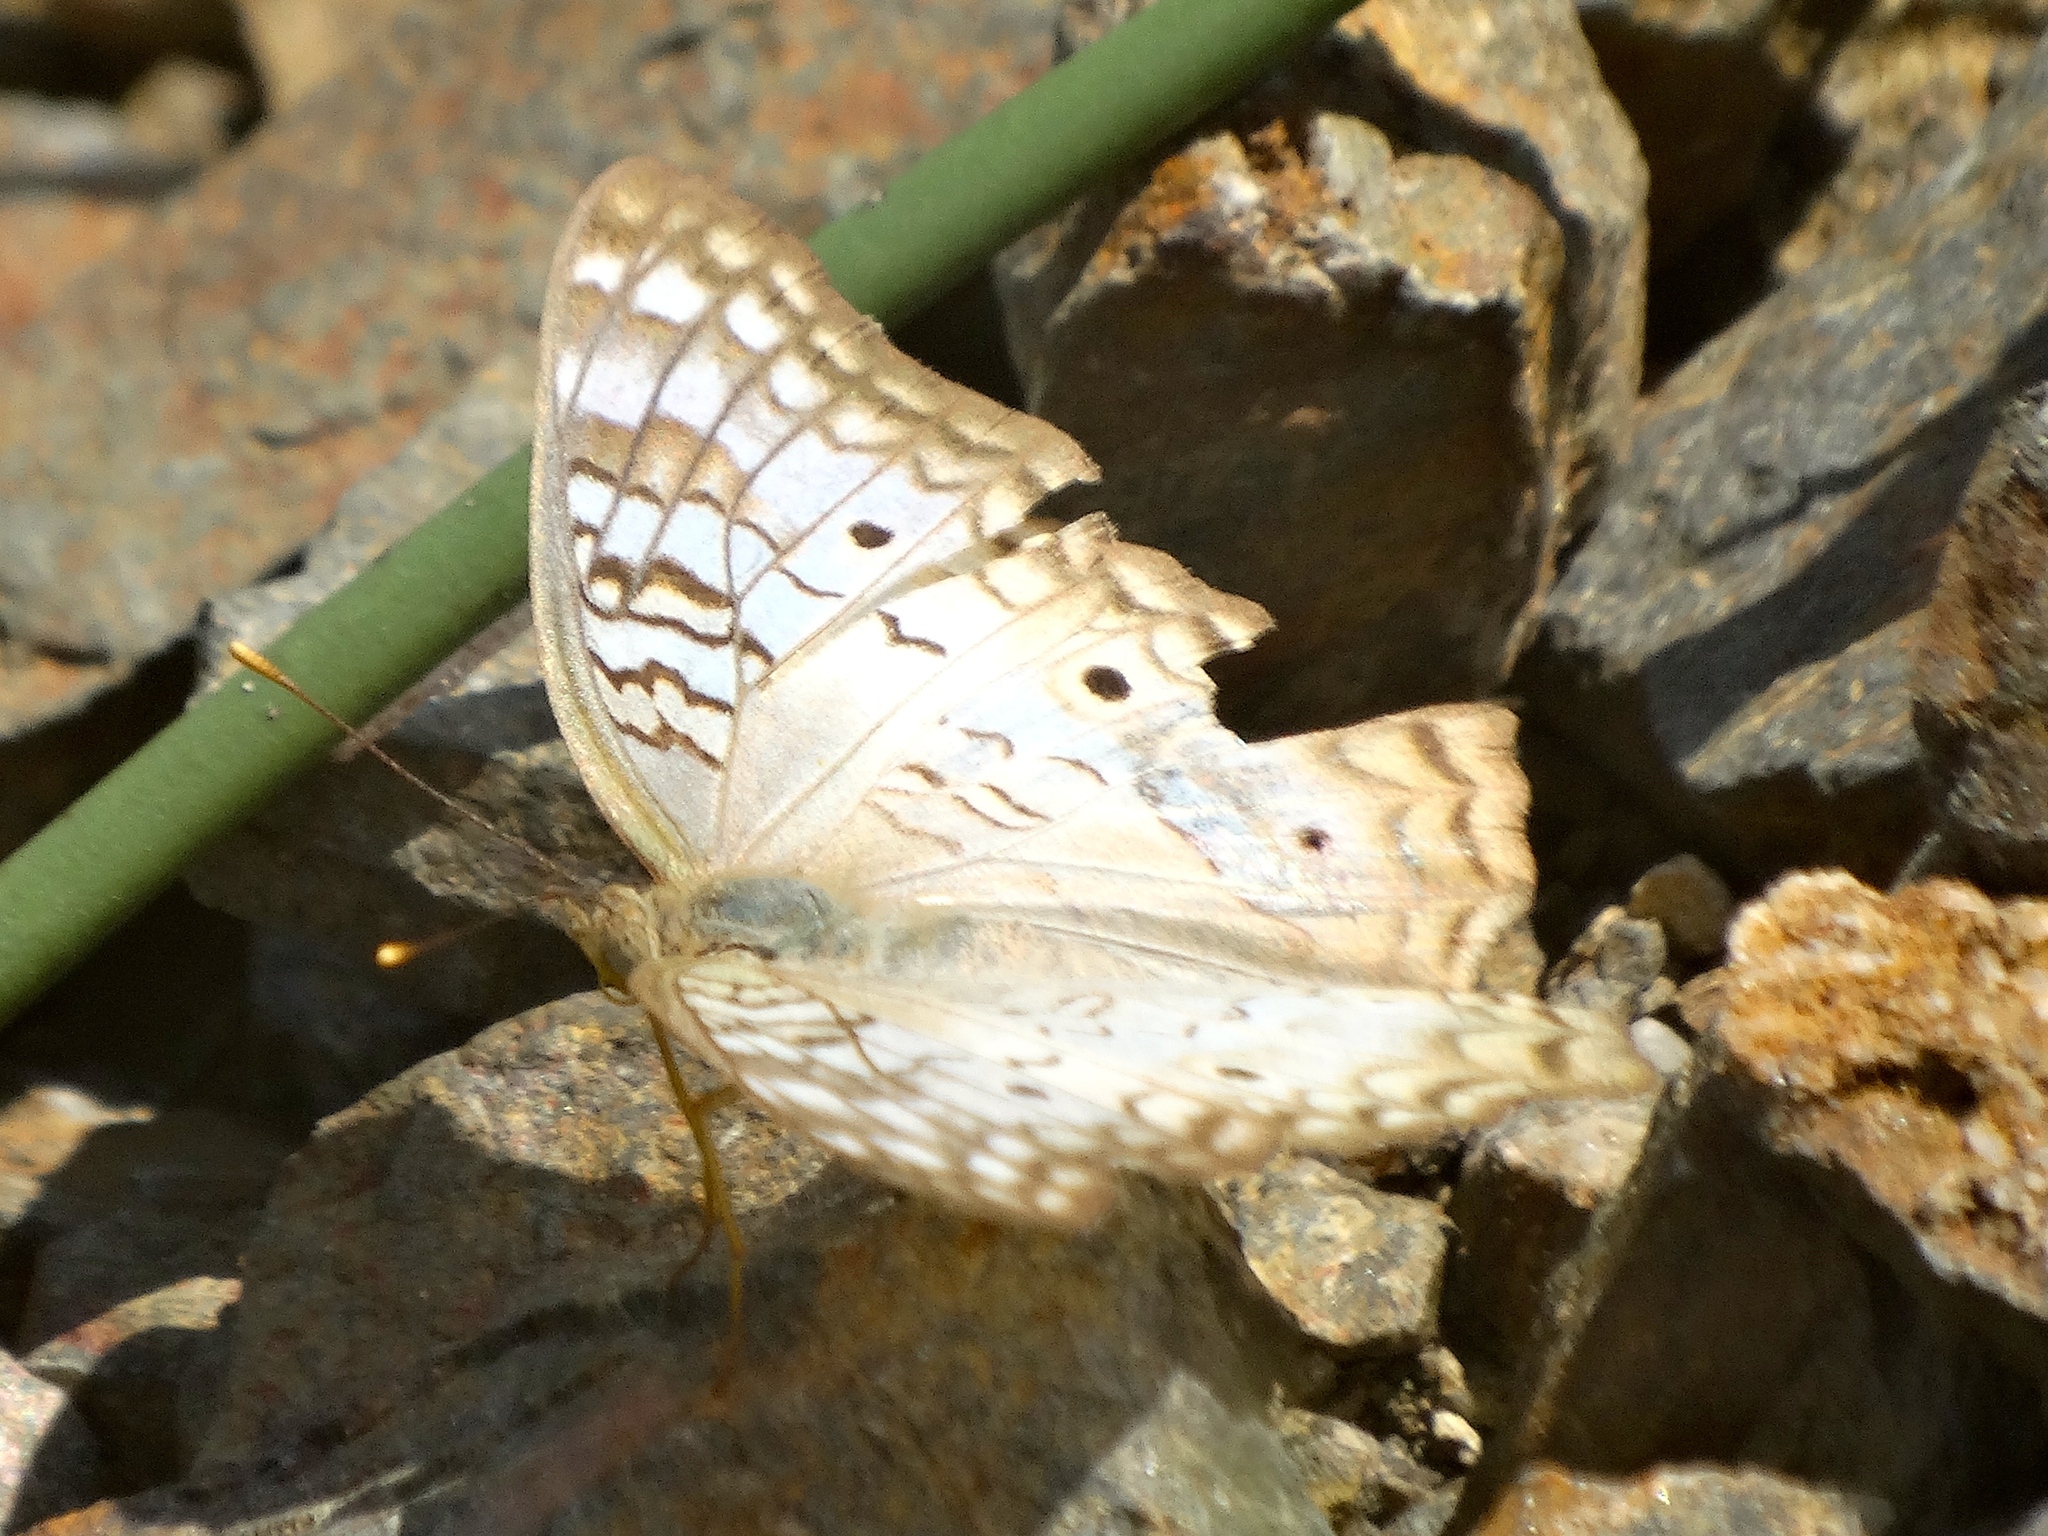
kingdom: Animalia
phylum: Arthropoda
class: Insecta
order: Lepidoptera
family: Nymphalidae
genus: Anartia
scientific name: Anartia jatrophae
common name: White peacock
